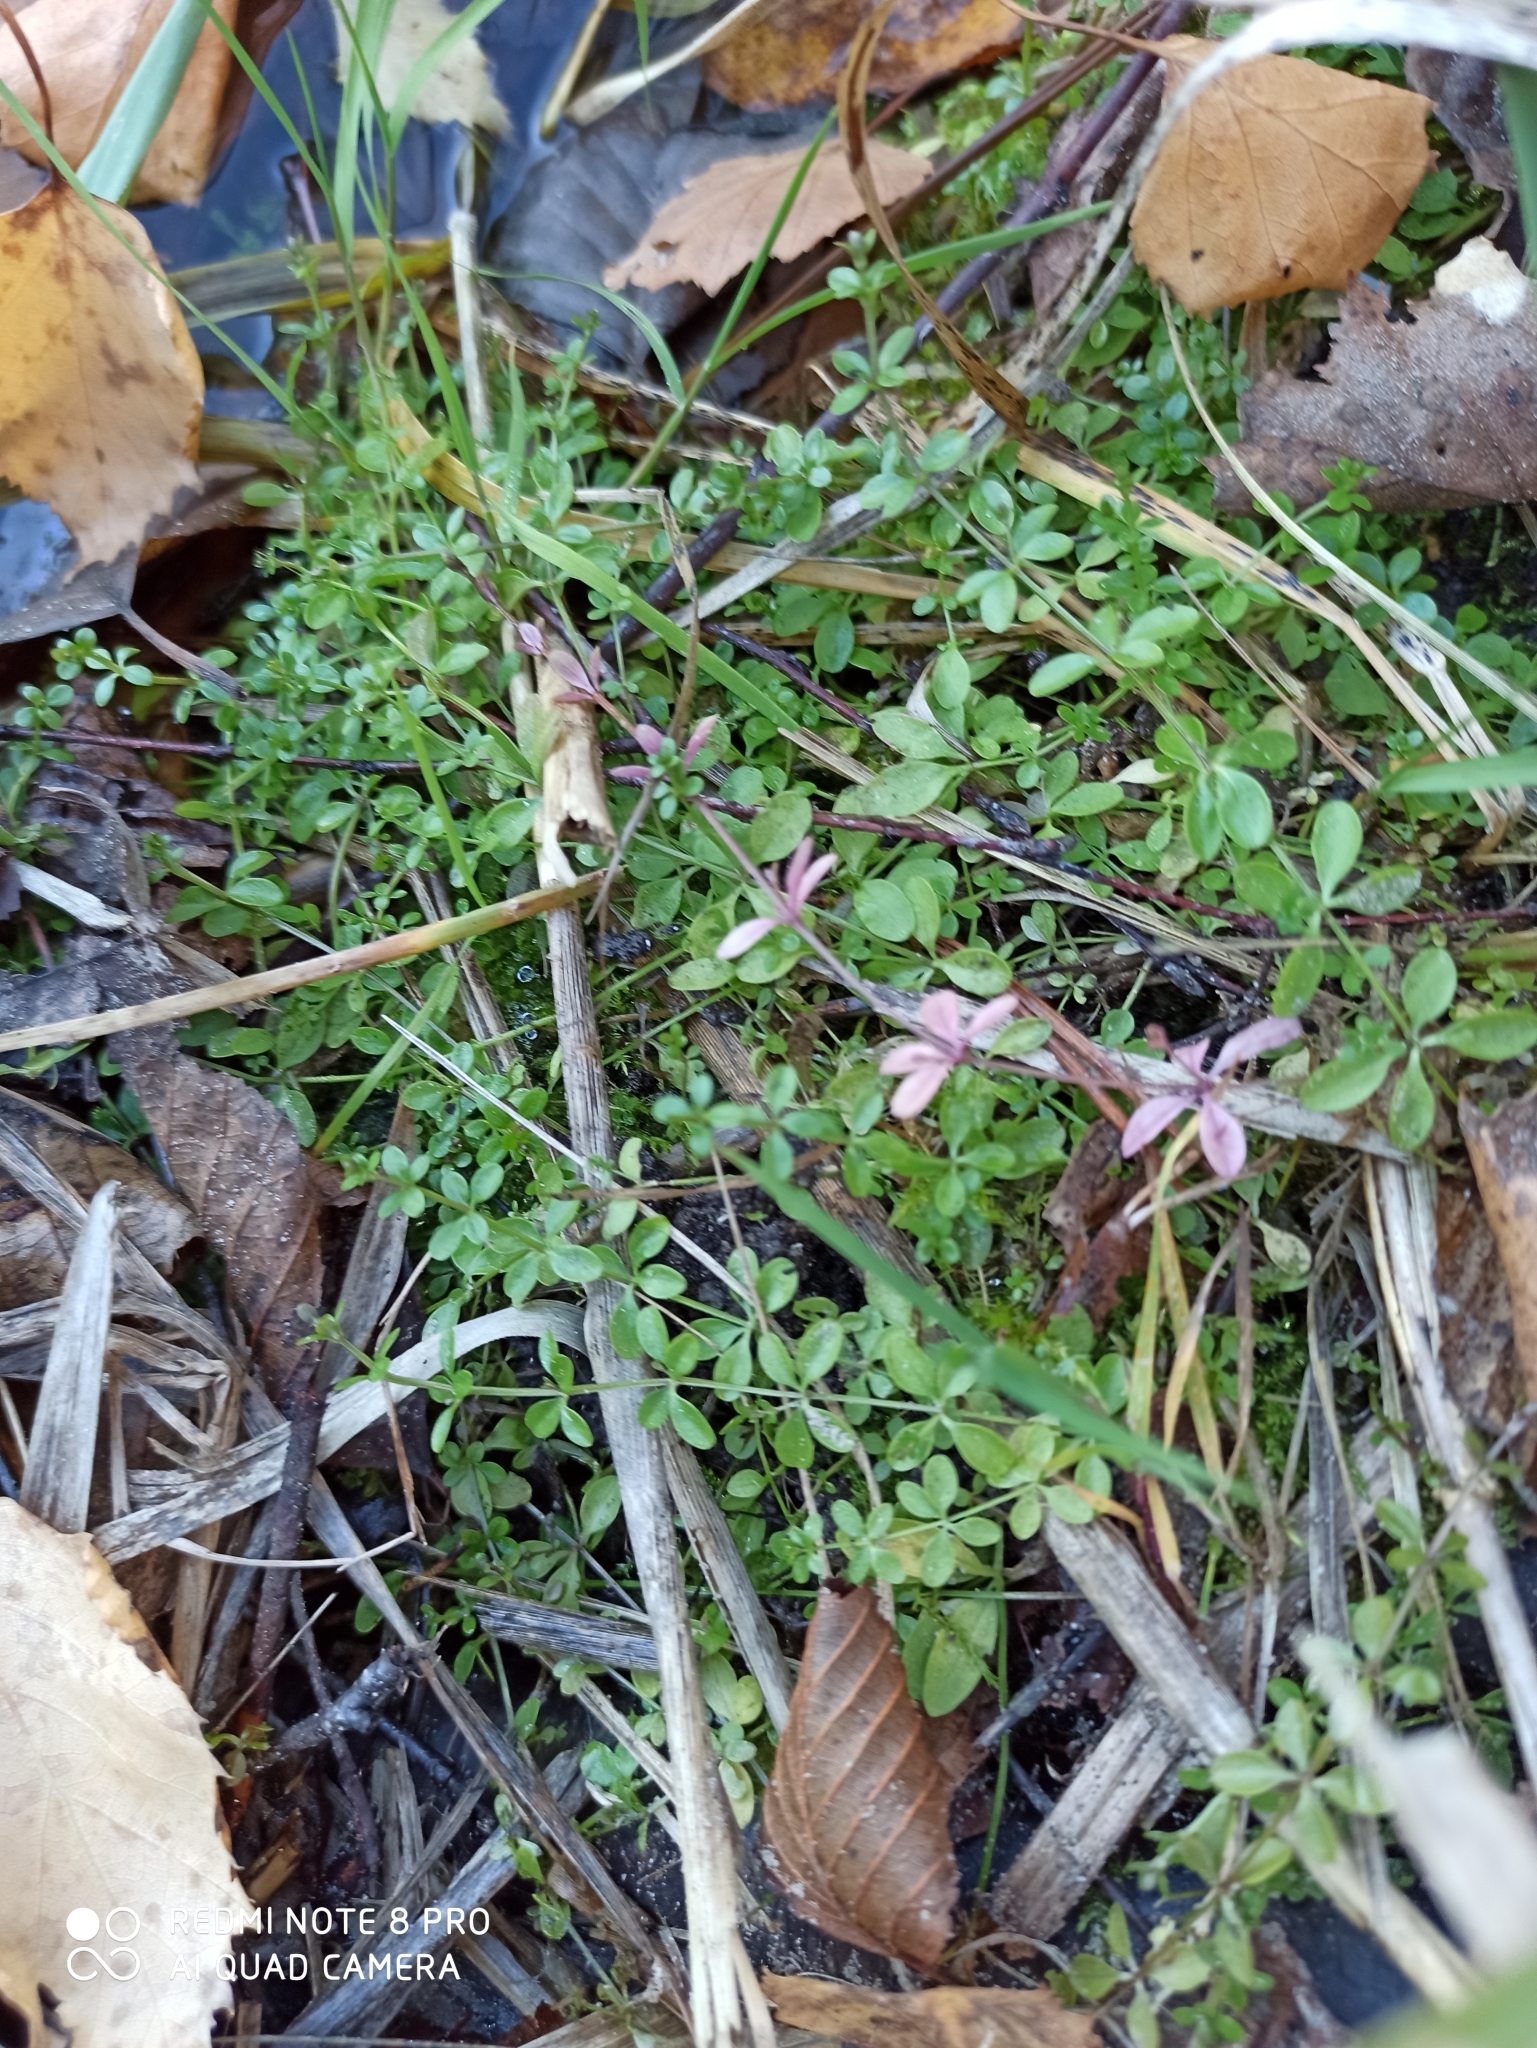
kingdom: Plantae
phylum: Tracheophyta
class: Magnoliopsida
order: Gentianales
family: Rubiaceae
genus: Galium
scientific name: Galium palustre
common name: Common marsh-bedstraw
